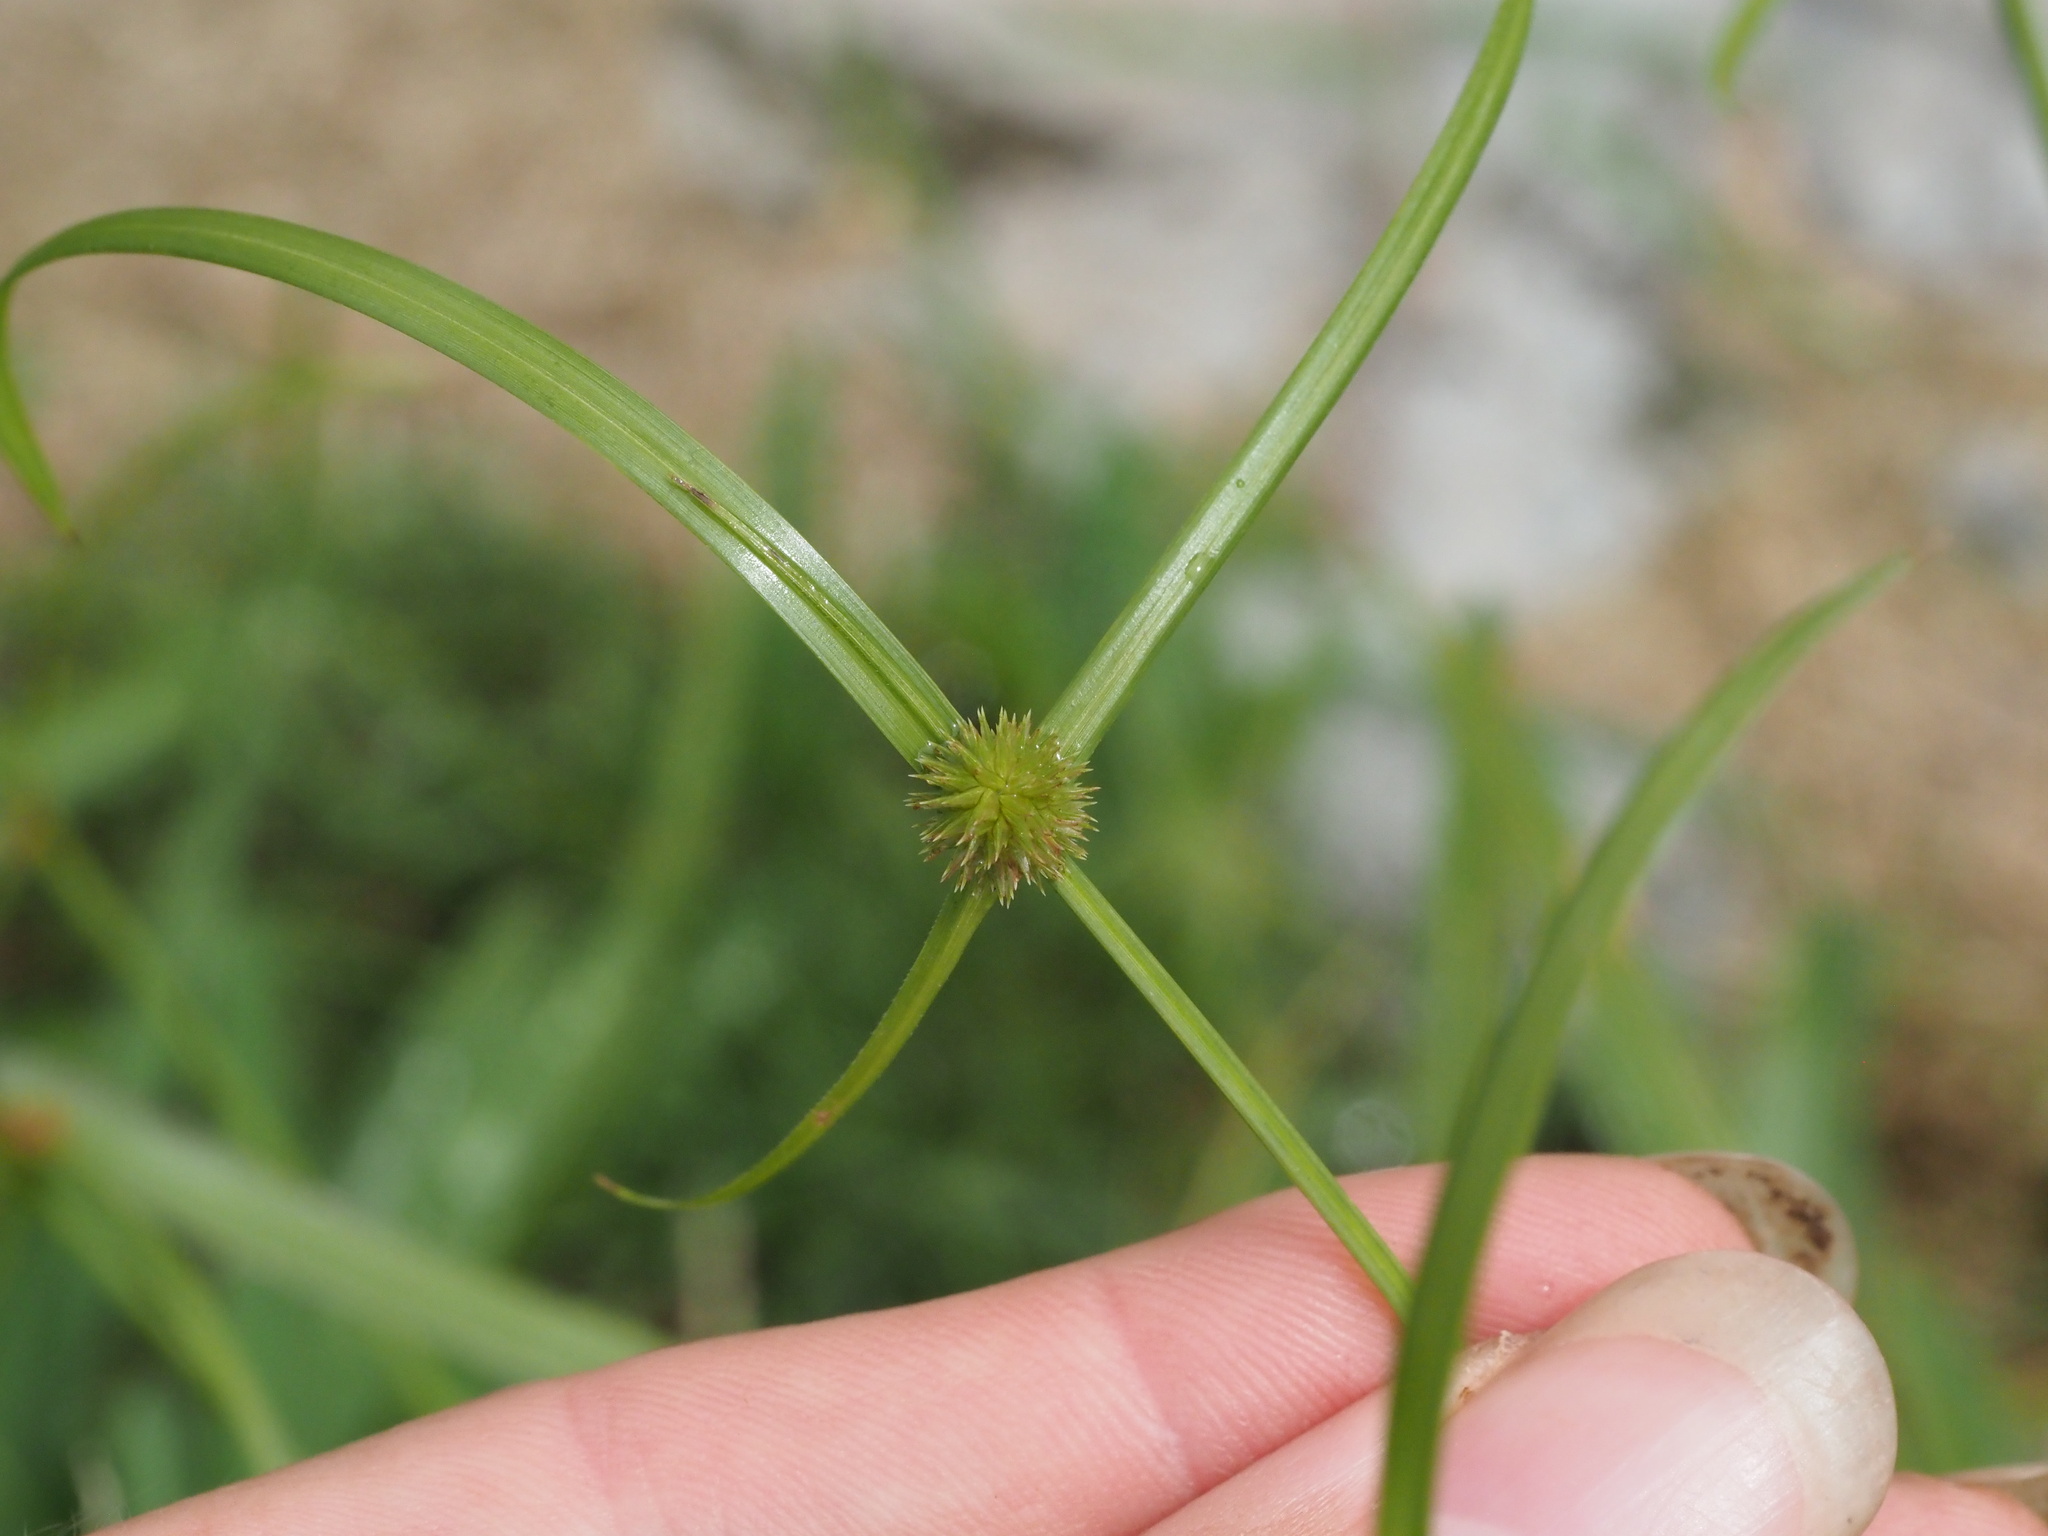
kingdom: Plantae
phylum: Tracheophyta
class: Liliopsida
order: Poales
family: Cyperaceae
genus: Cyperus
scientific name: Cyperus brevifolius
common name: Globe kyllinga
